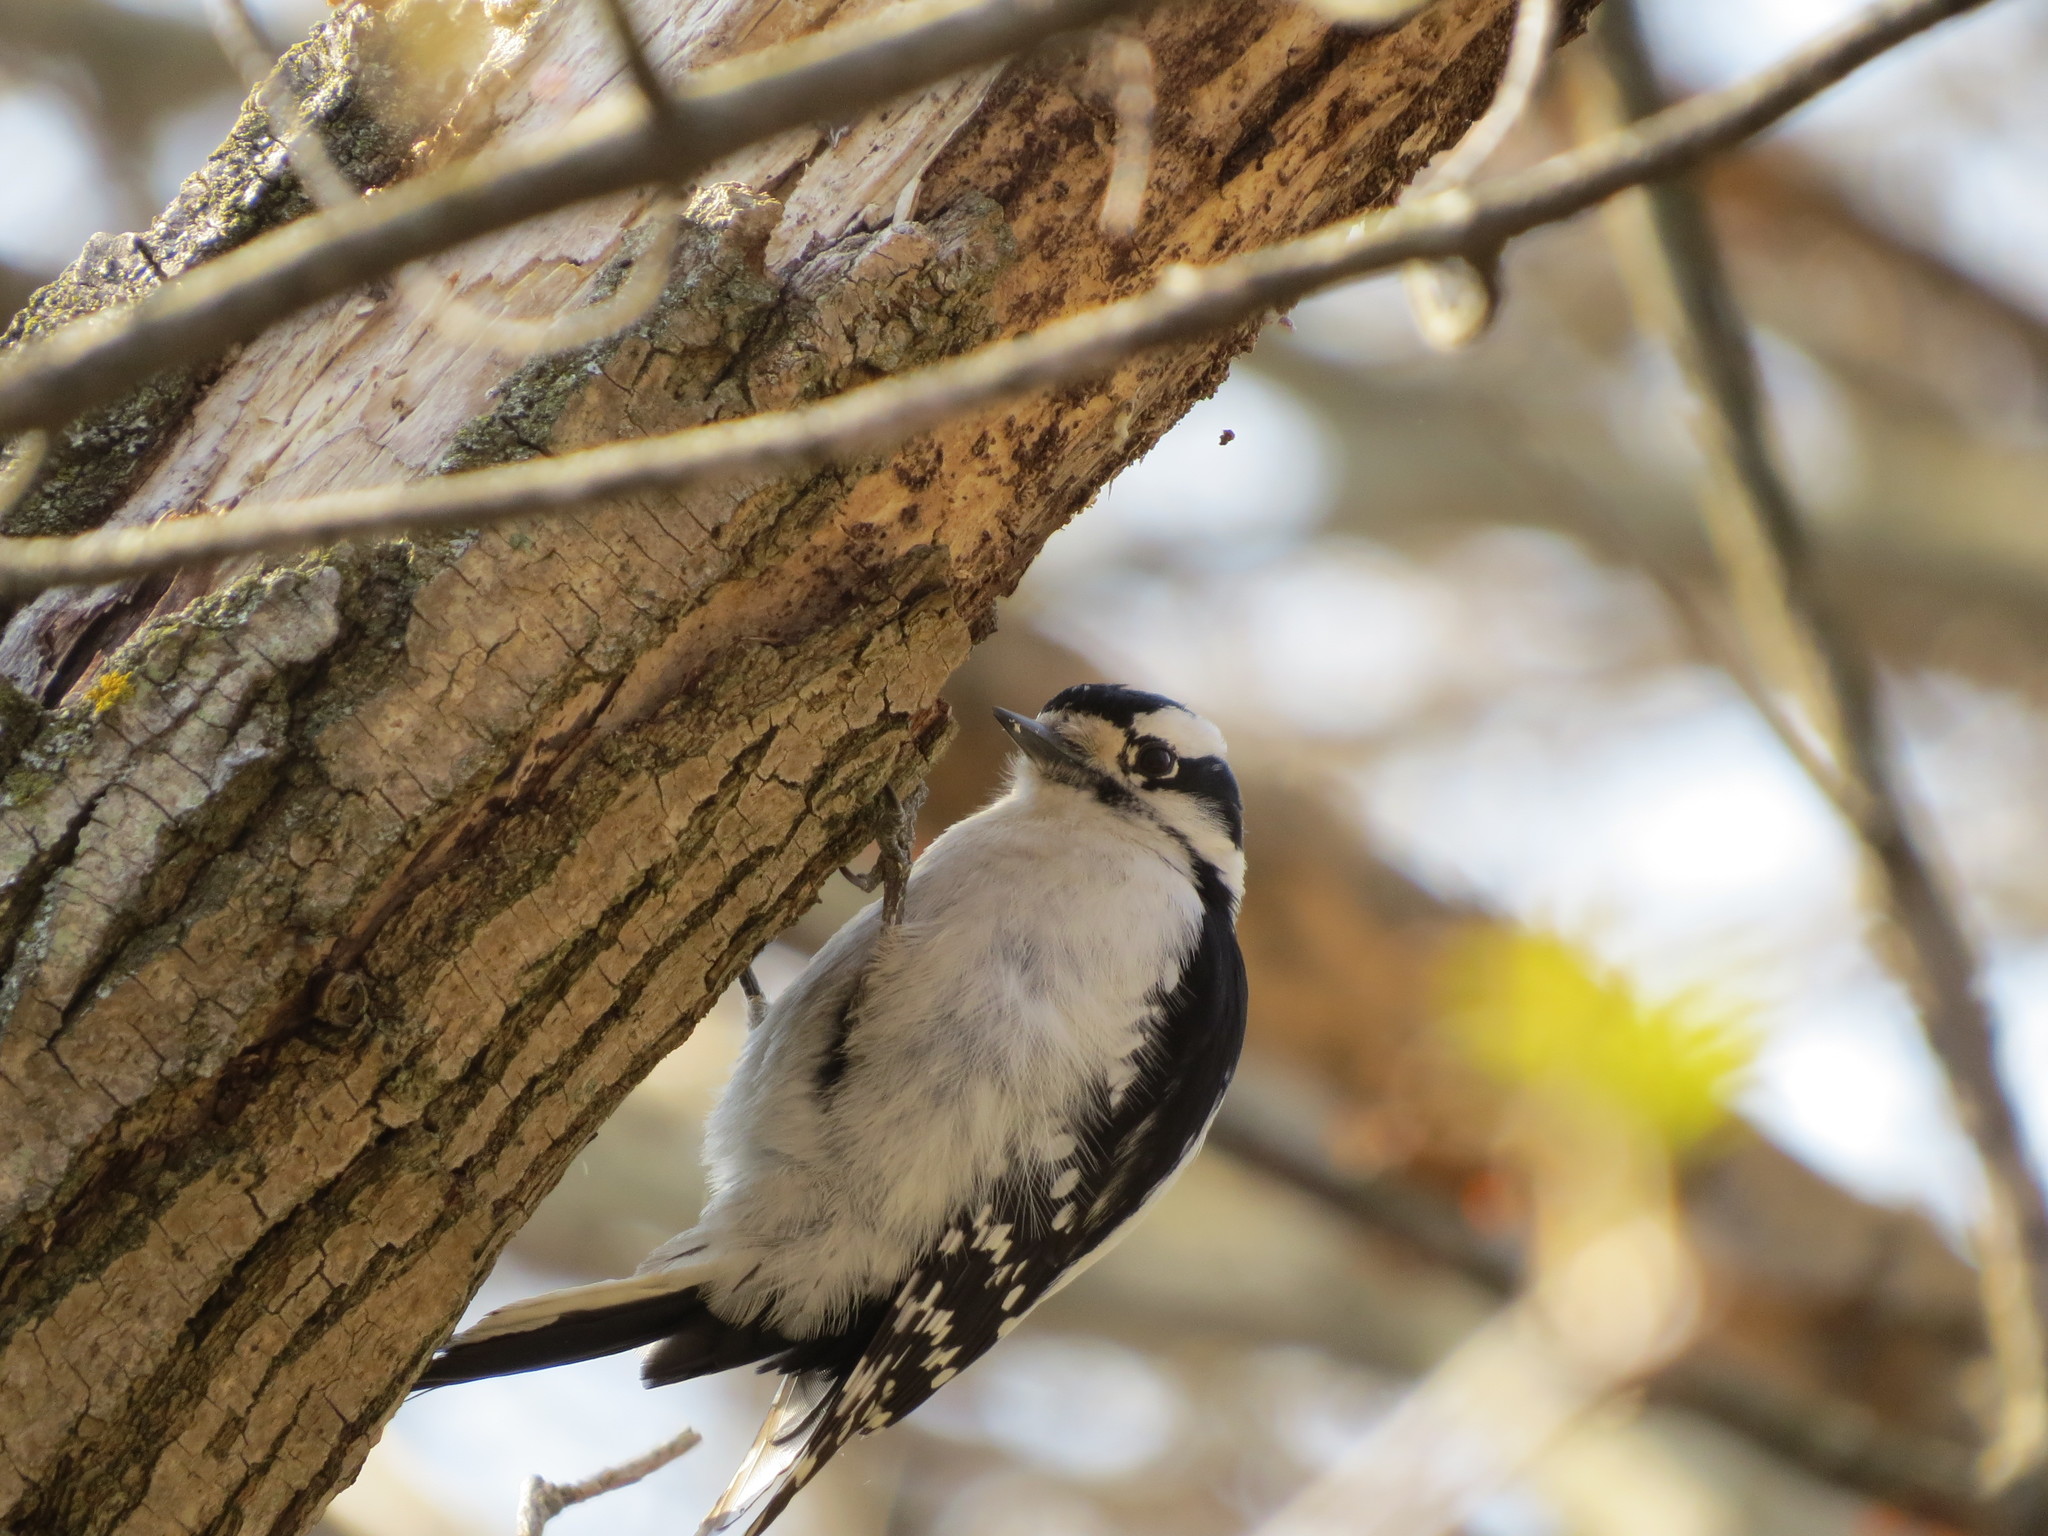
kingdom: Animalia
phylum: Chordata
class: Aves
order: Piciformes
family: Picidae
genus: Dryobates
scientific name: Dryobates pubescens
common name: Downy woodpecker
